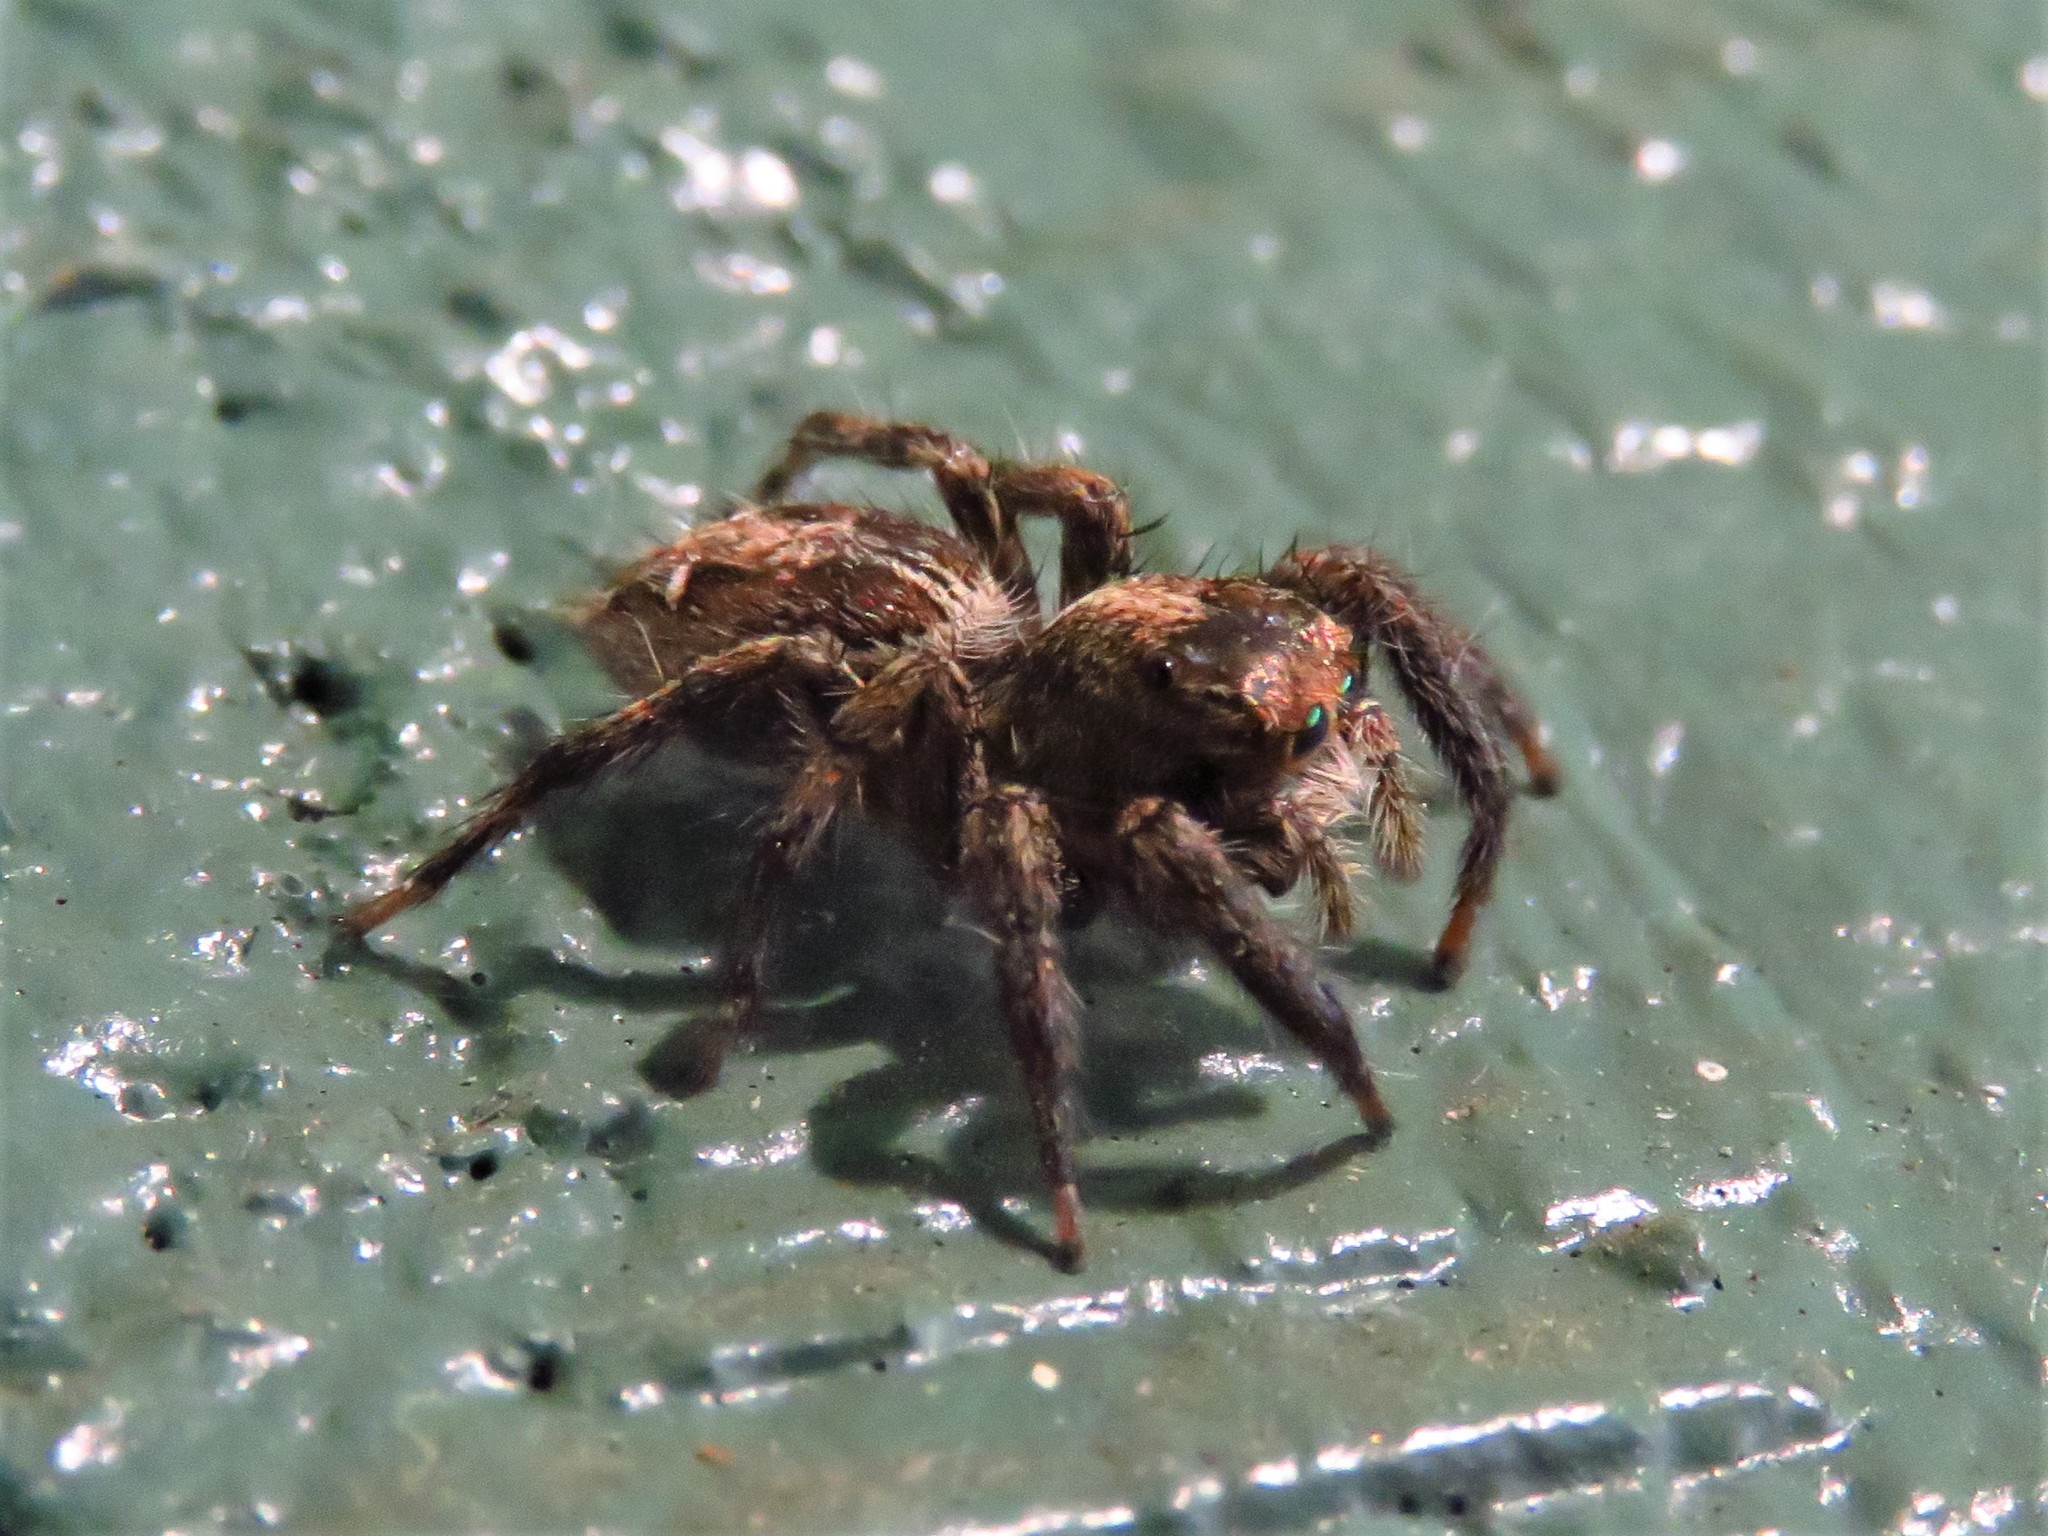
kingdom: Animalia
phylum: Arthropoda
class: Arachnida
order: Araneae
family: Salticidae
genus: Plexippus
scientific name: Plexippus paykulli
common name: Pantropical jumper
